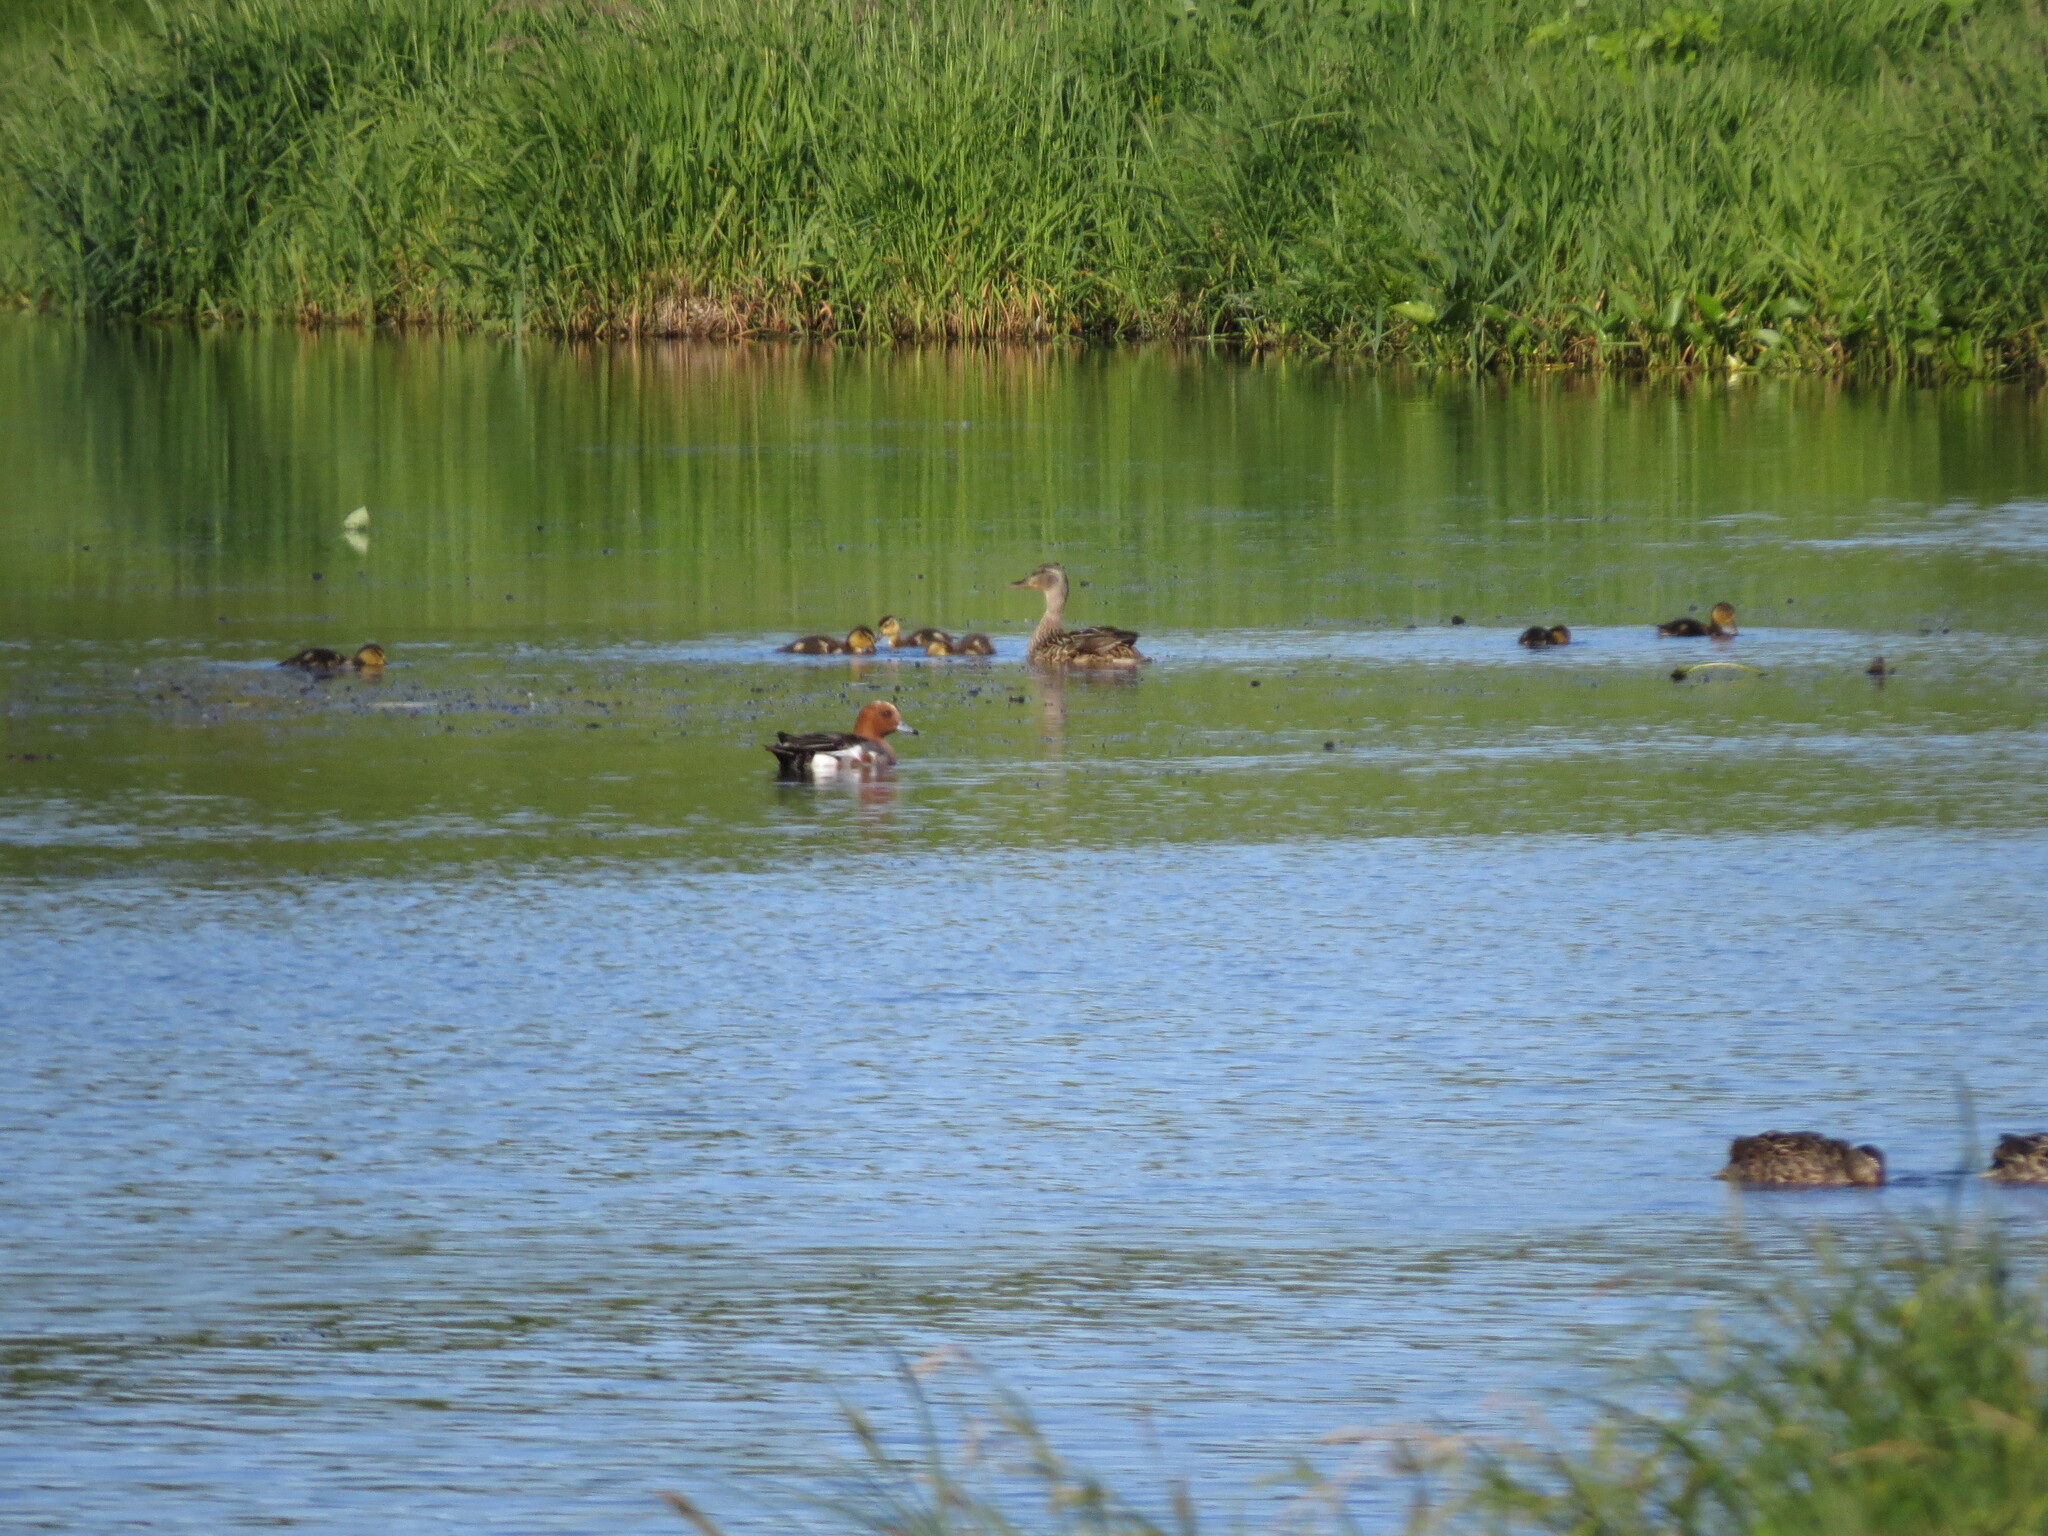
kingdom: Animalia
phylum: Chordata
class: Aves
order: Anseriformes
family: Anatidae
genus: Mareca
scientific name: Mareca penelope
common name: Eurasian wigeon
